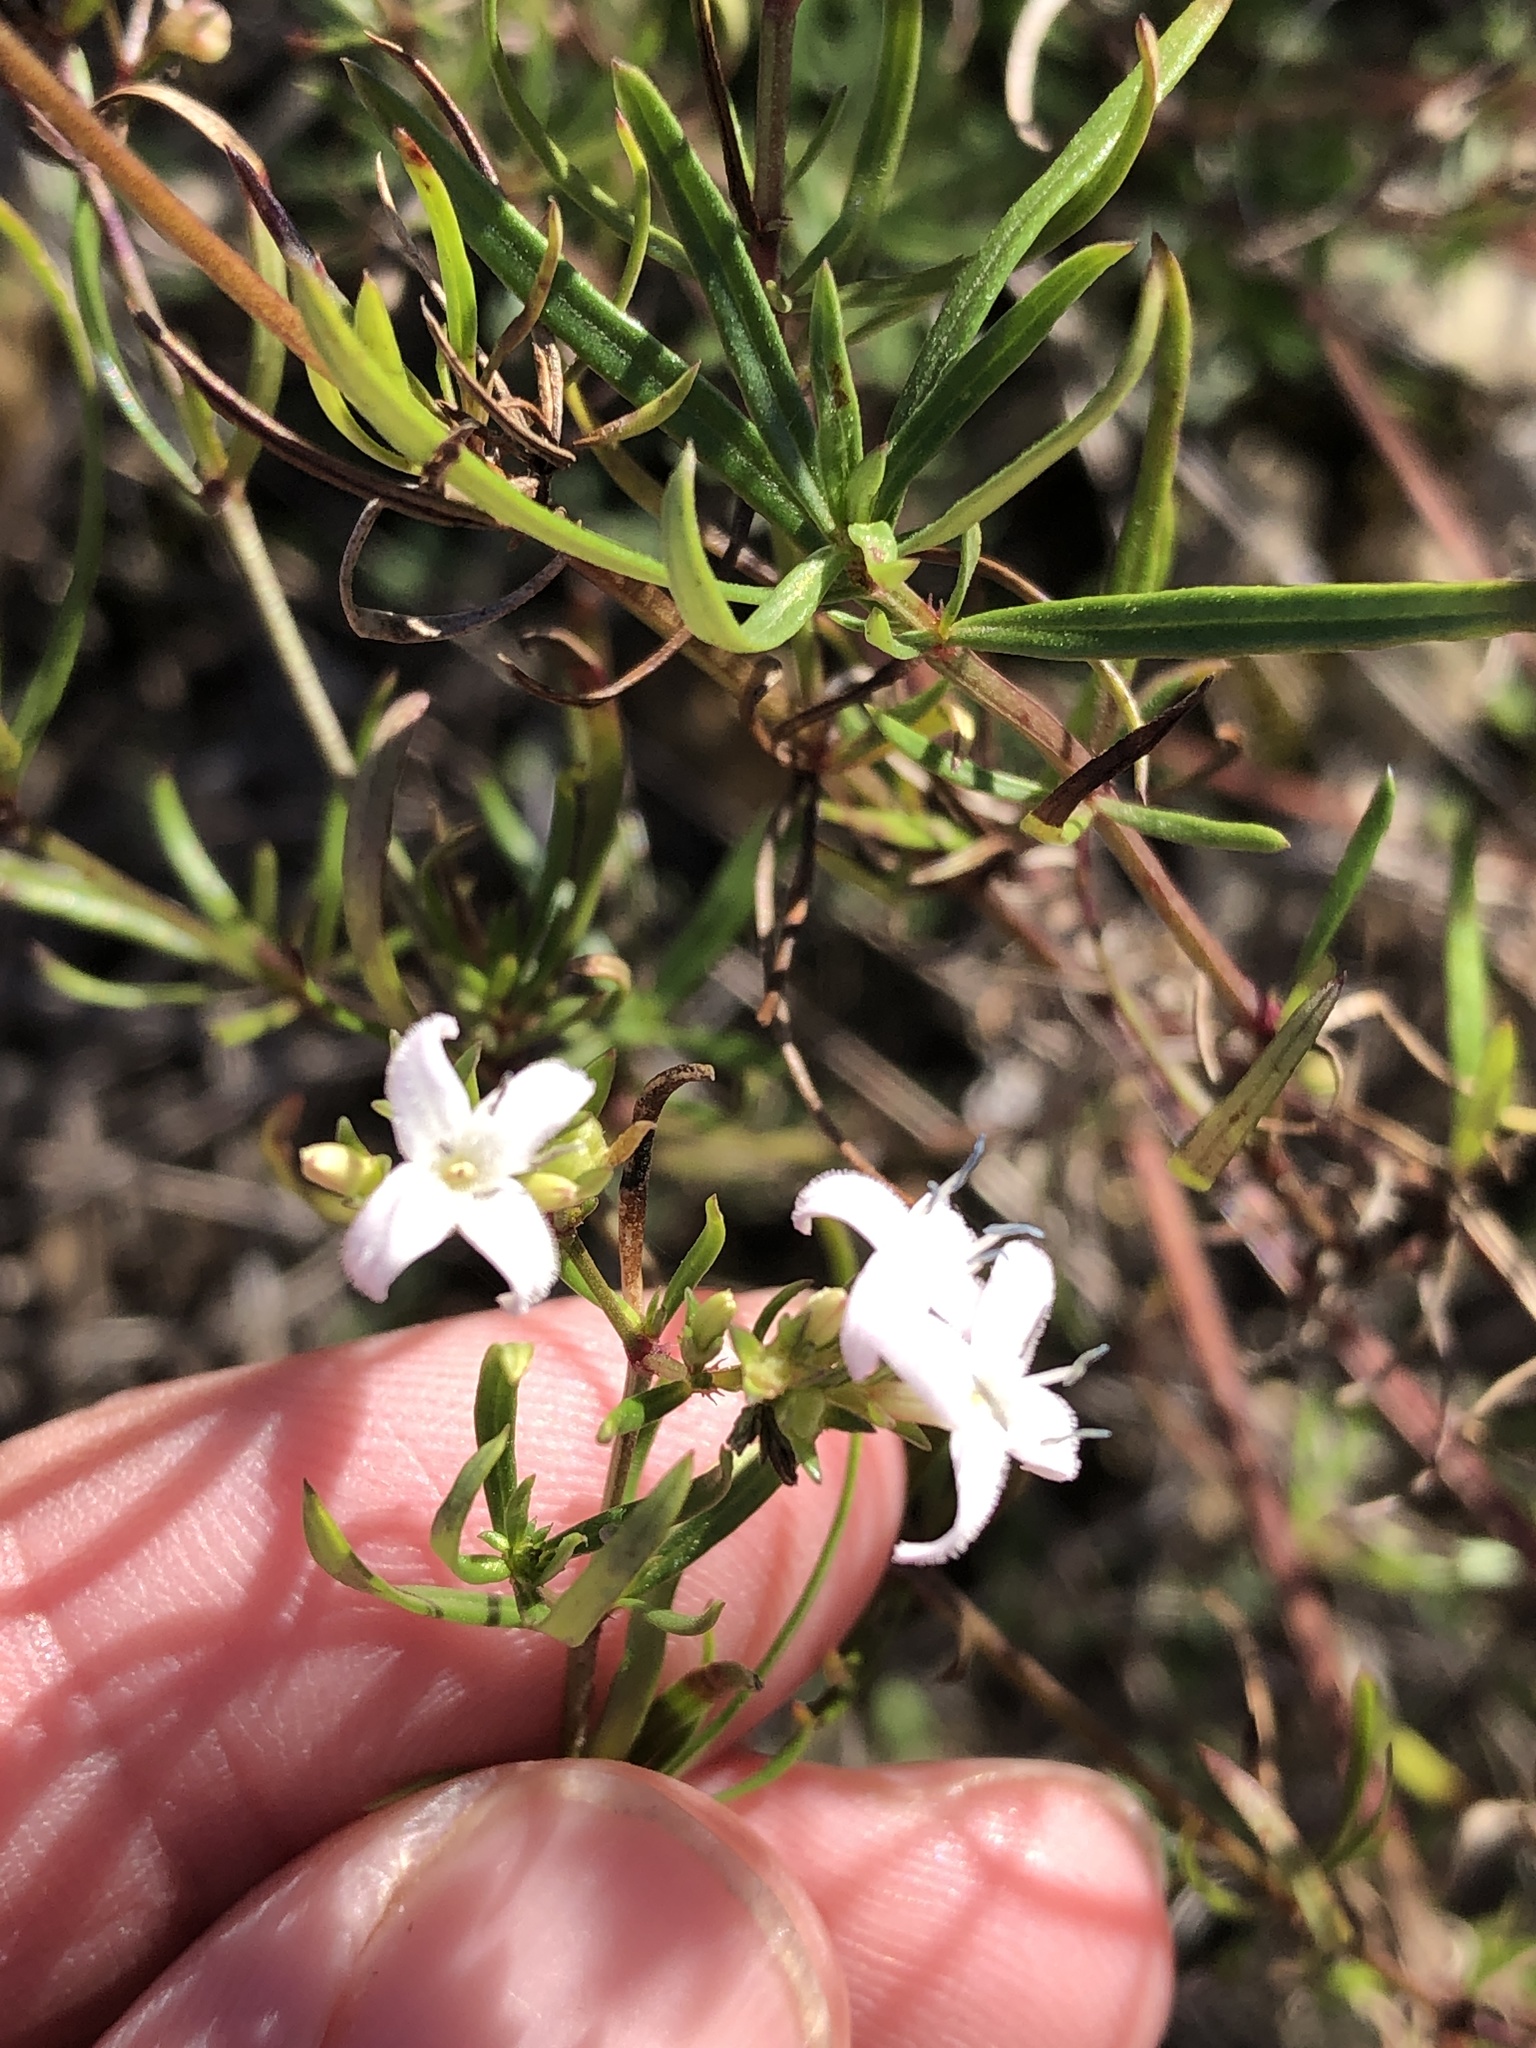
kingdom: Plantae
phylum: Tracheophyta
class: Magnoliopsida
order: Gentianales
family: Rubiaceae
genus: Stenaria
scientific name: Stenaria nigricans
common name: Diamondflowers
